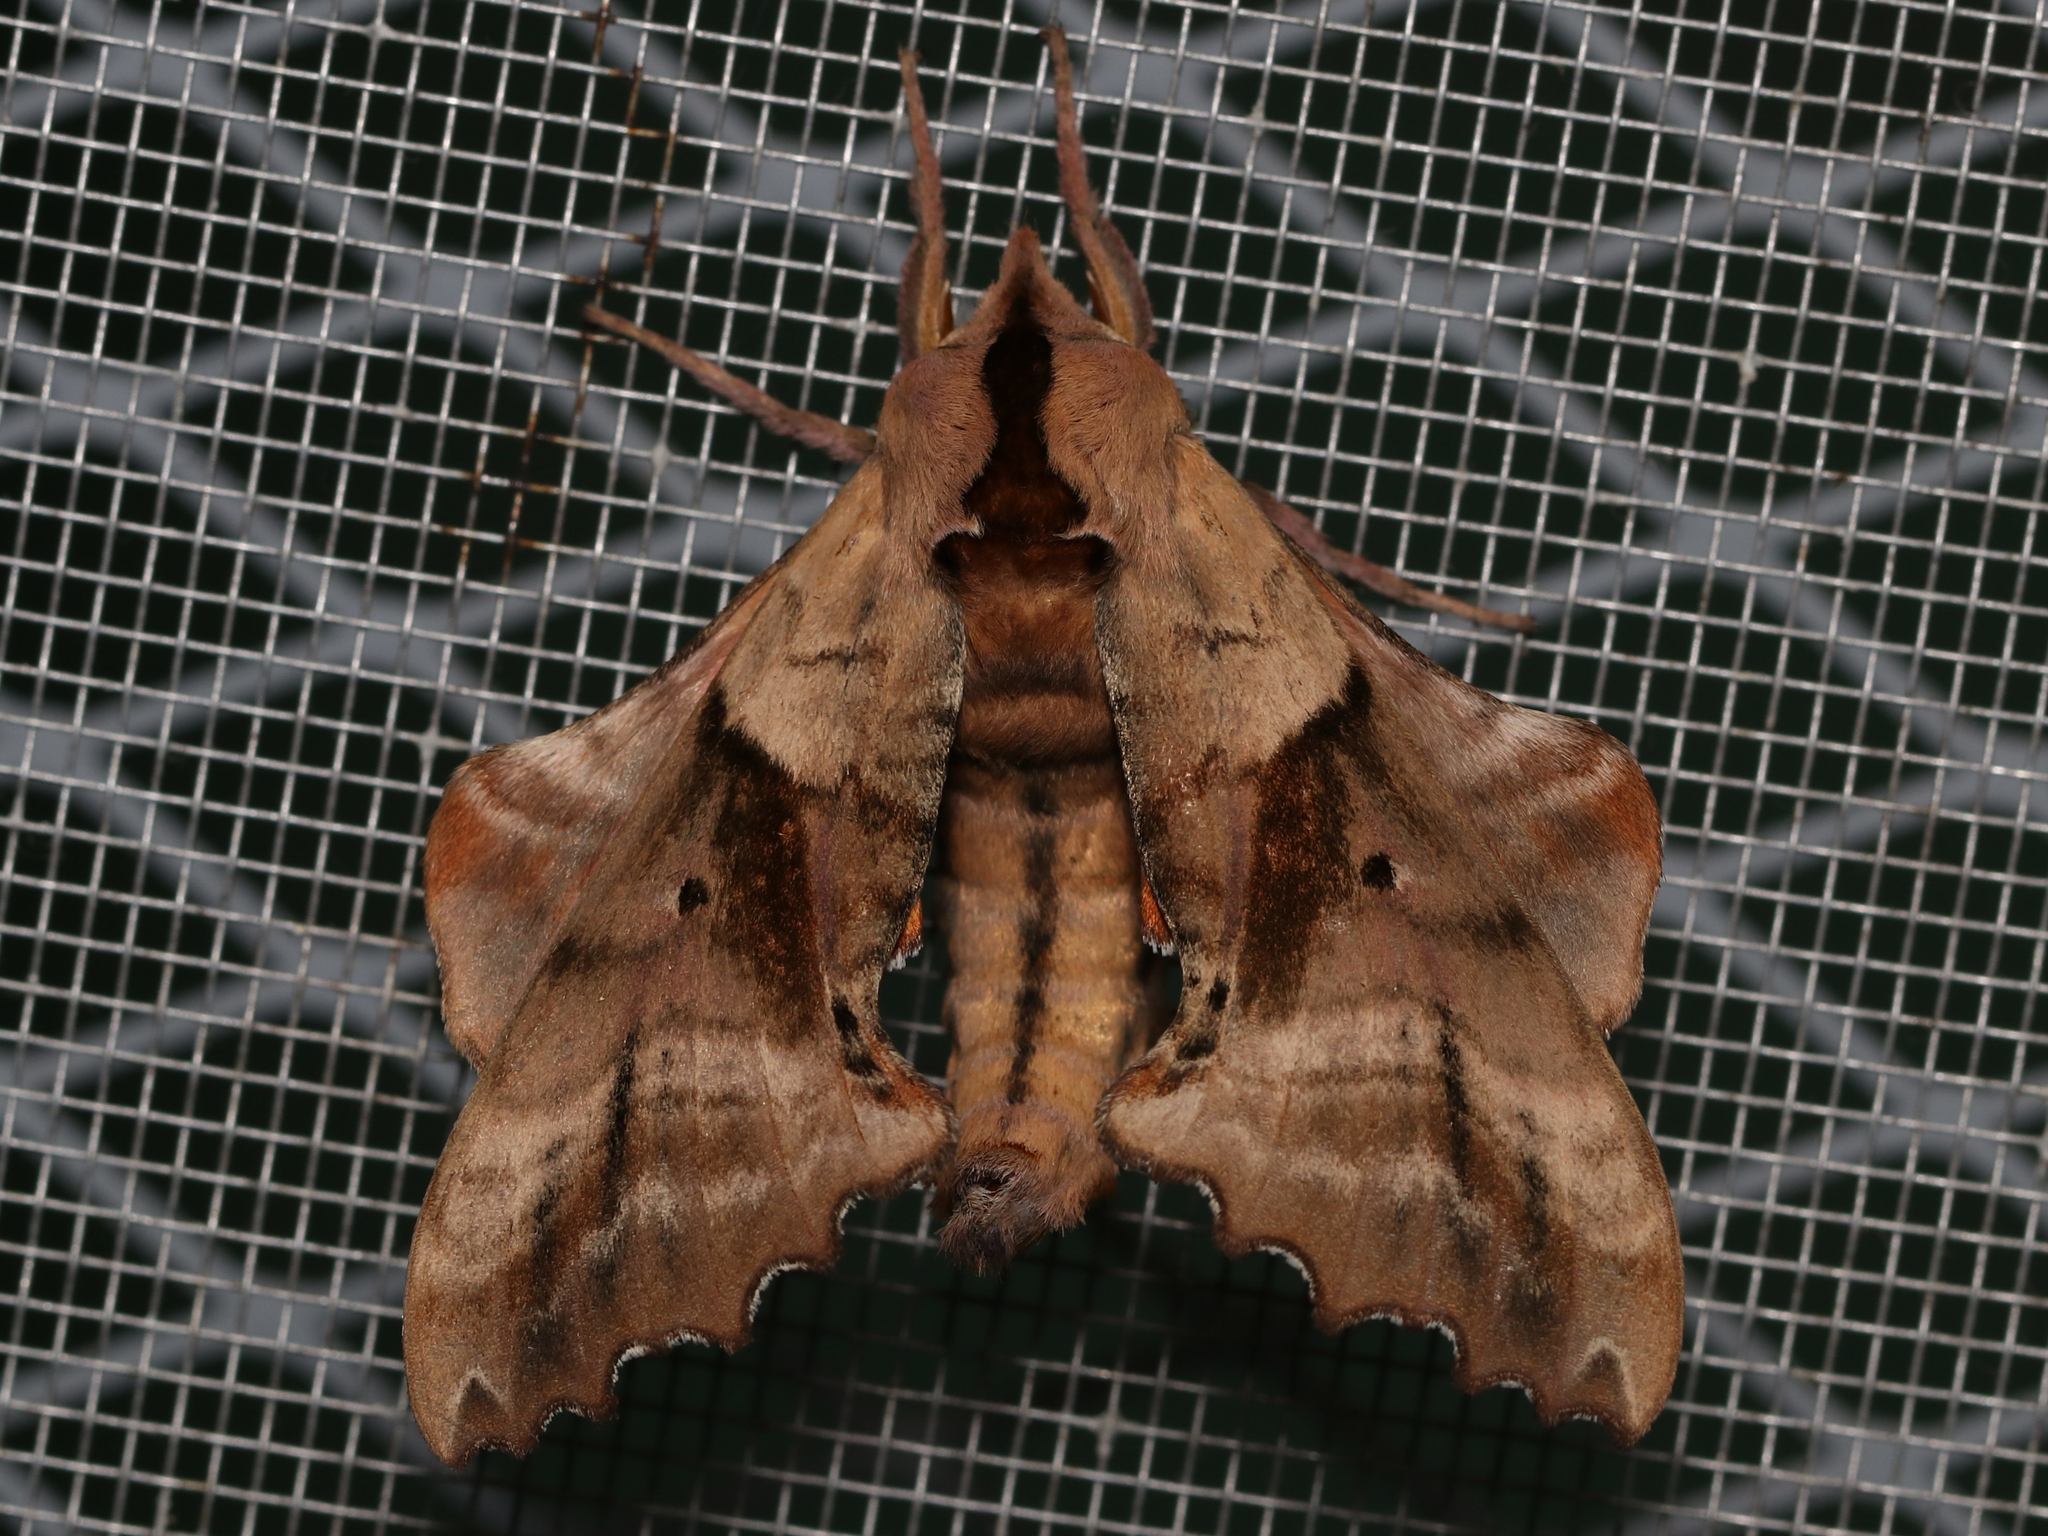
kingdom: Animalia
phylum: Arthropoda
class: Insecta
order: Lepidoptera
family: Sphingidae
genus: Paonias
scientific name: Paonias excaecata
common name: Blind-eyed sphinx
